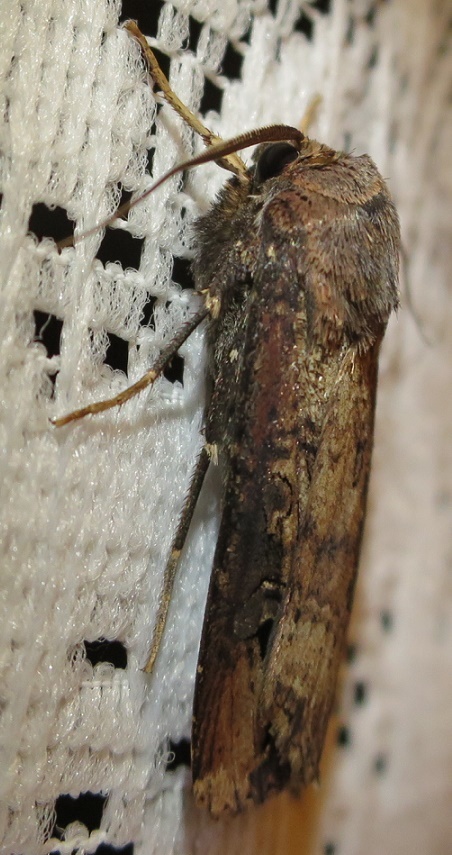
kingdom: Animalia
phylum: Arthropoda
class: Insecta
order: Lepidoptera
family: Noctuidae
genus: Agrotis
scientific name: Agrotis ipsilon
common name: Dark sword-grass
